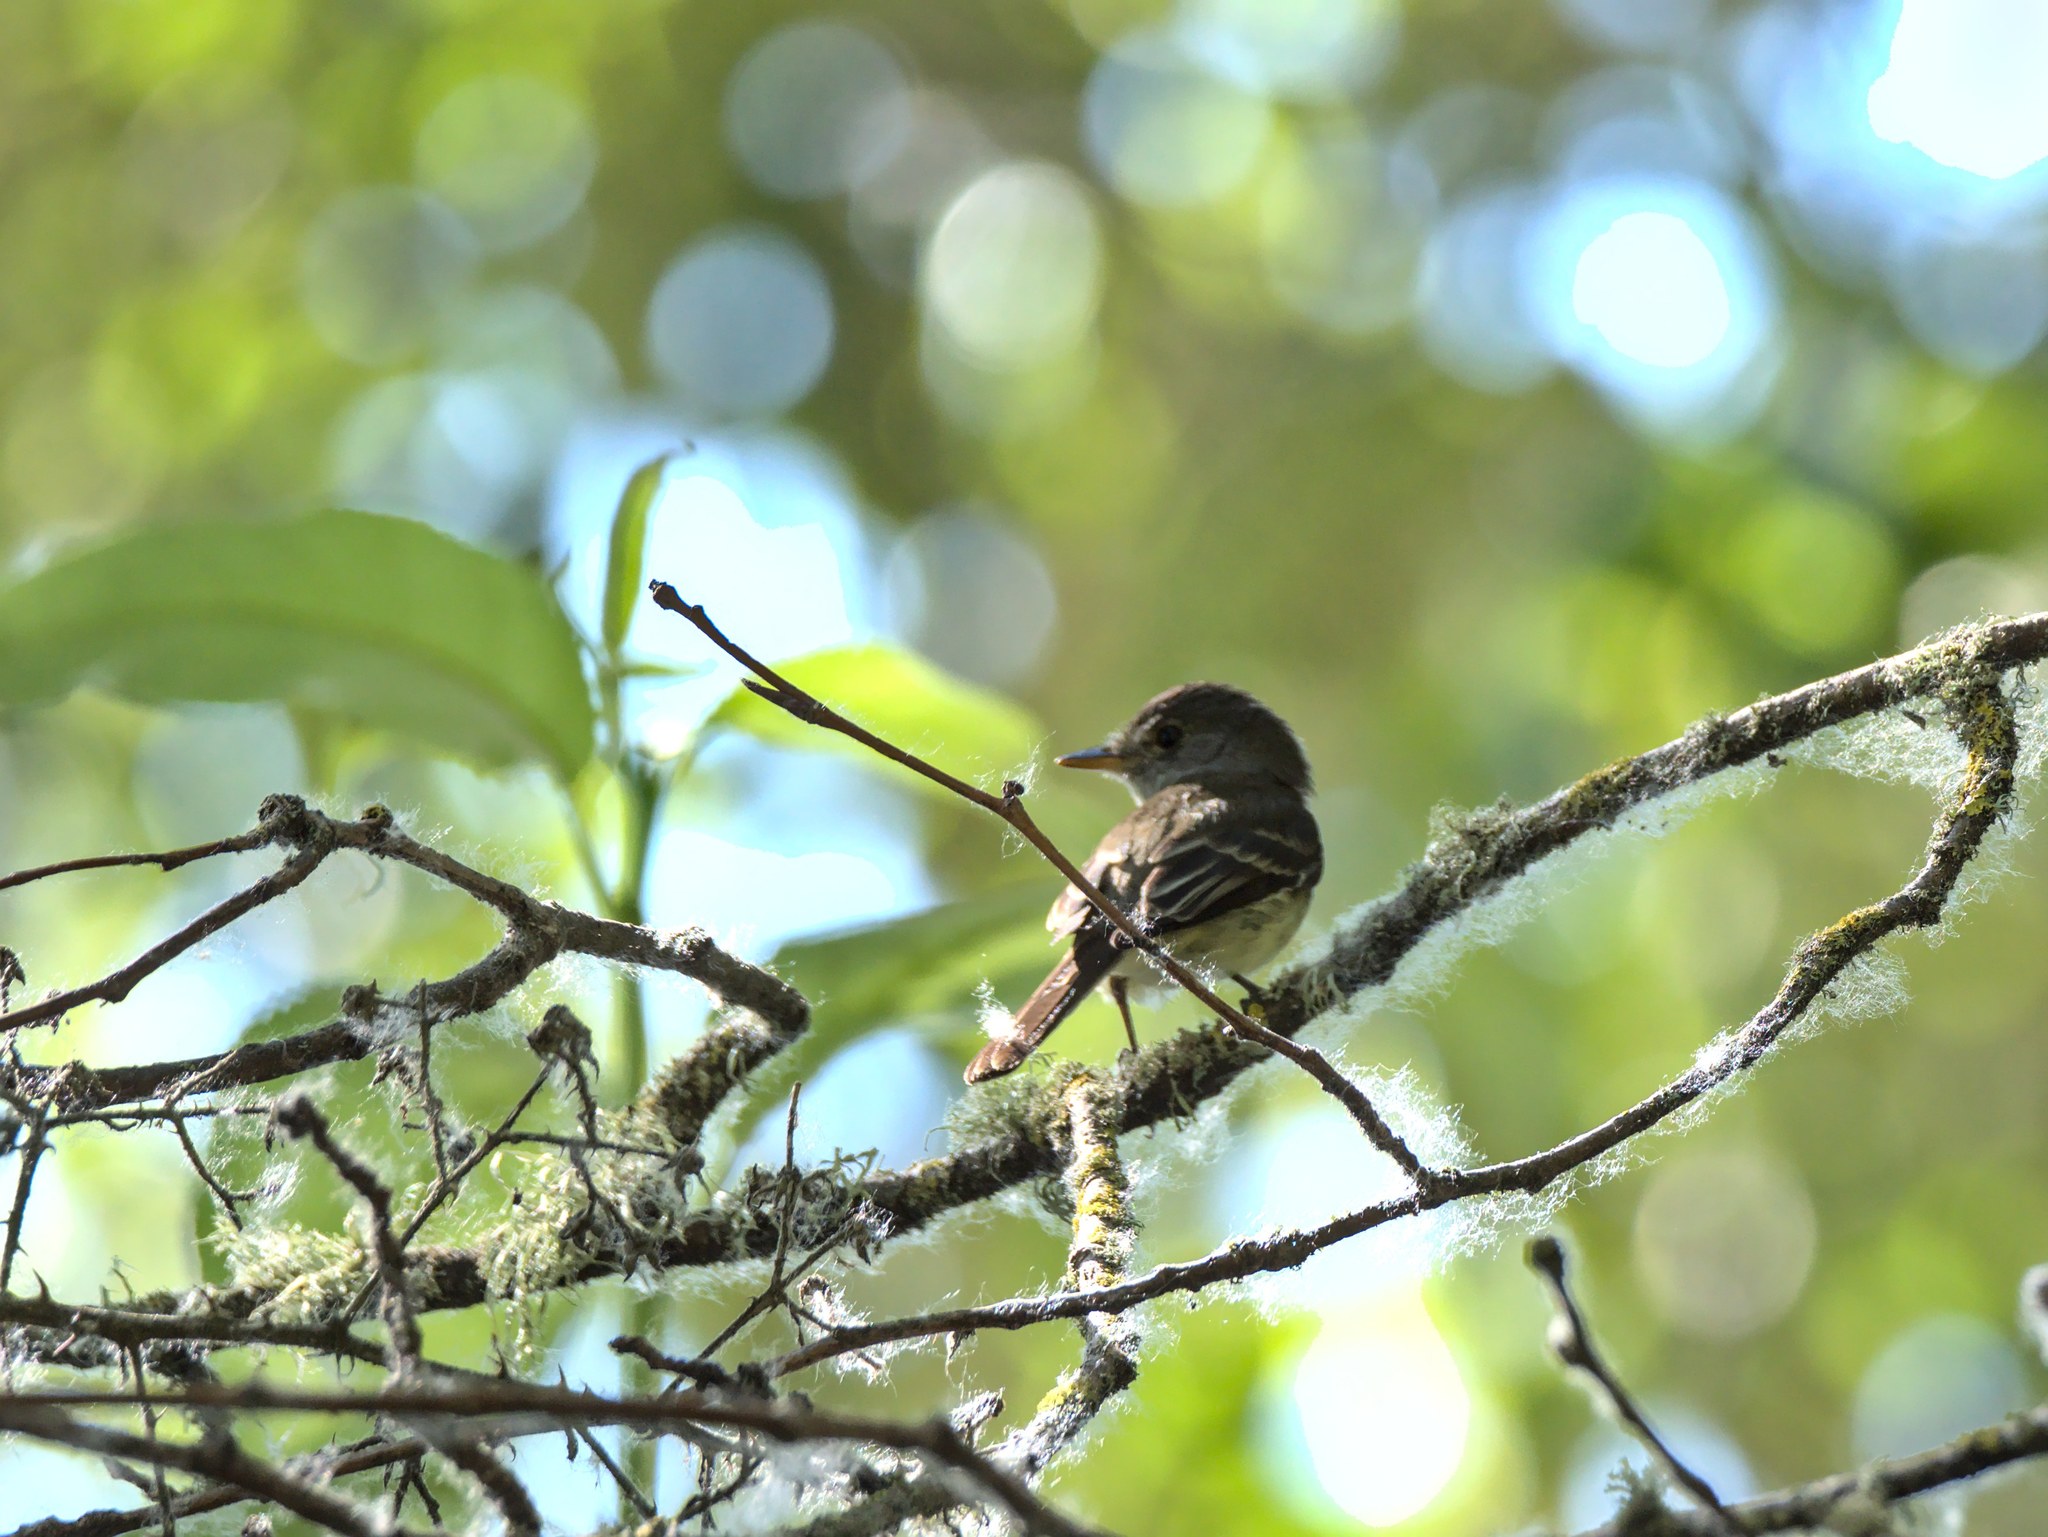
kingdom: Animalia
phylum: Chordata
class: Aves
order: Passeriformes
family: Tyrannidae
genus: Empidonax
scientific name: Empidonax traillii
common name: Willow flycatcher
